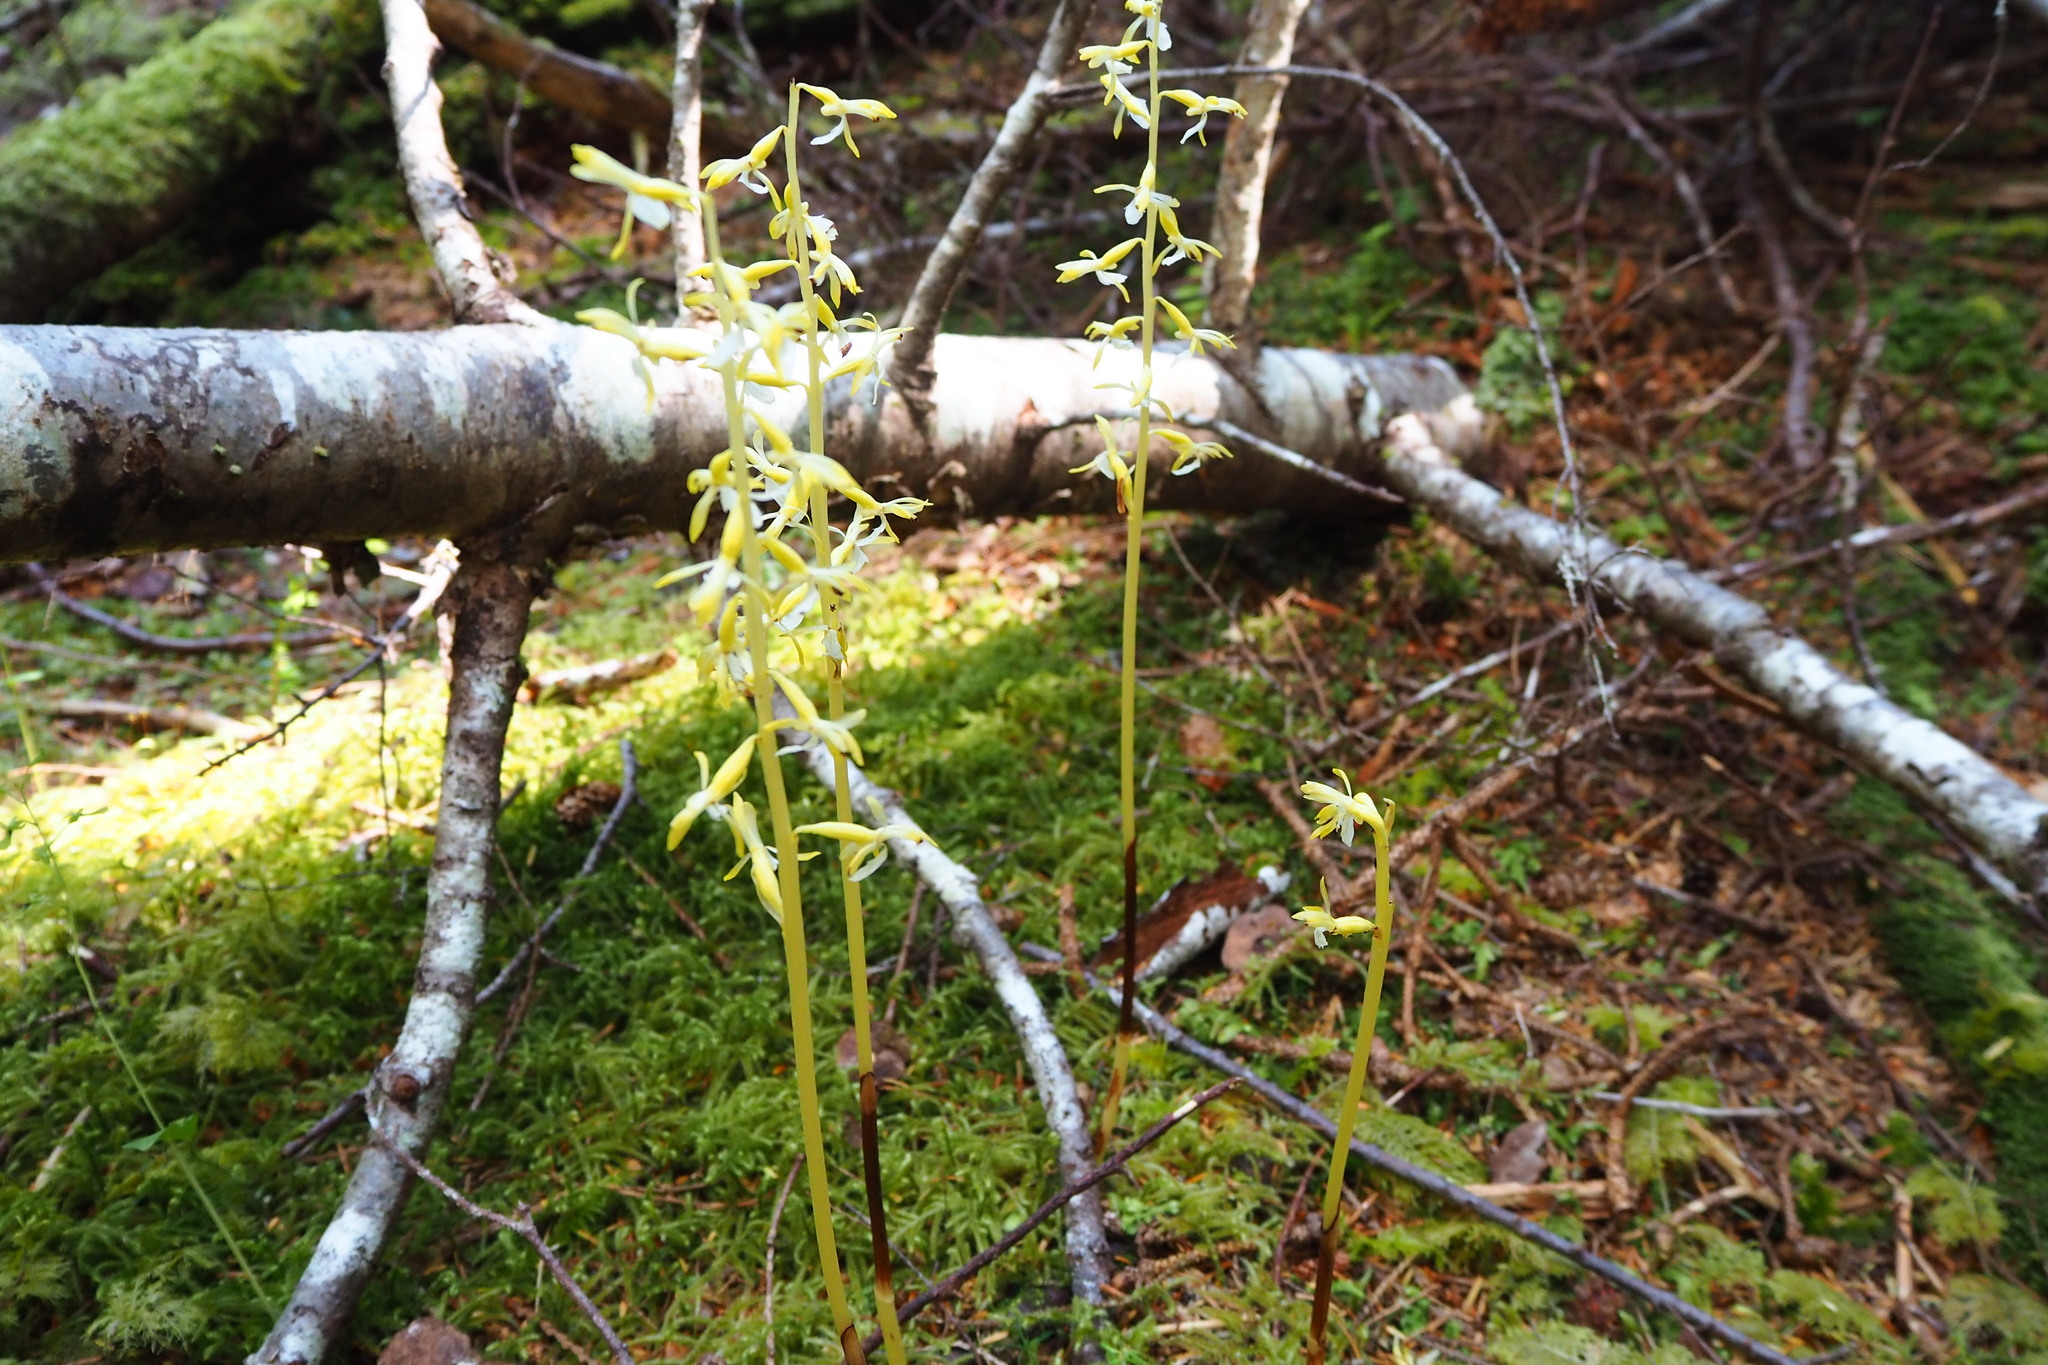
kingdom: Plantae
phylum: Tracheophyta
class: Liliopsida
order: Asparagales
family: Orchidaceae
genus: Corallorhiza
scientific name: Corallorhiza mertensiana
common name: Pacific coralroot
